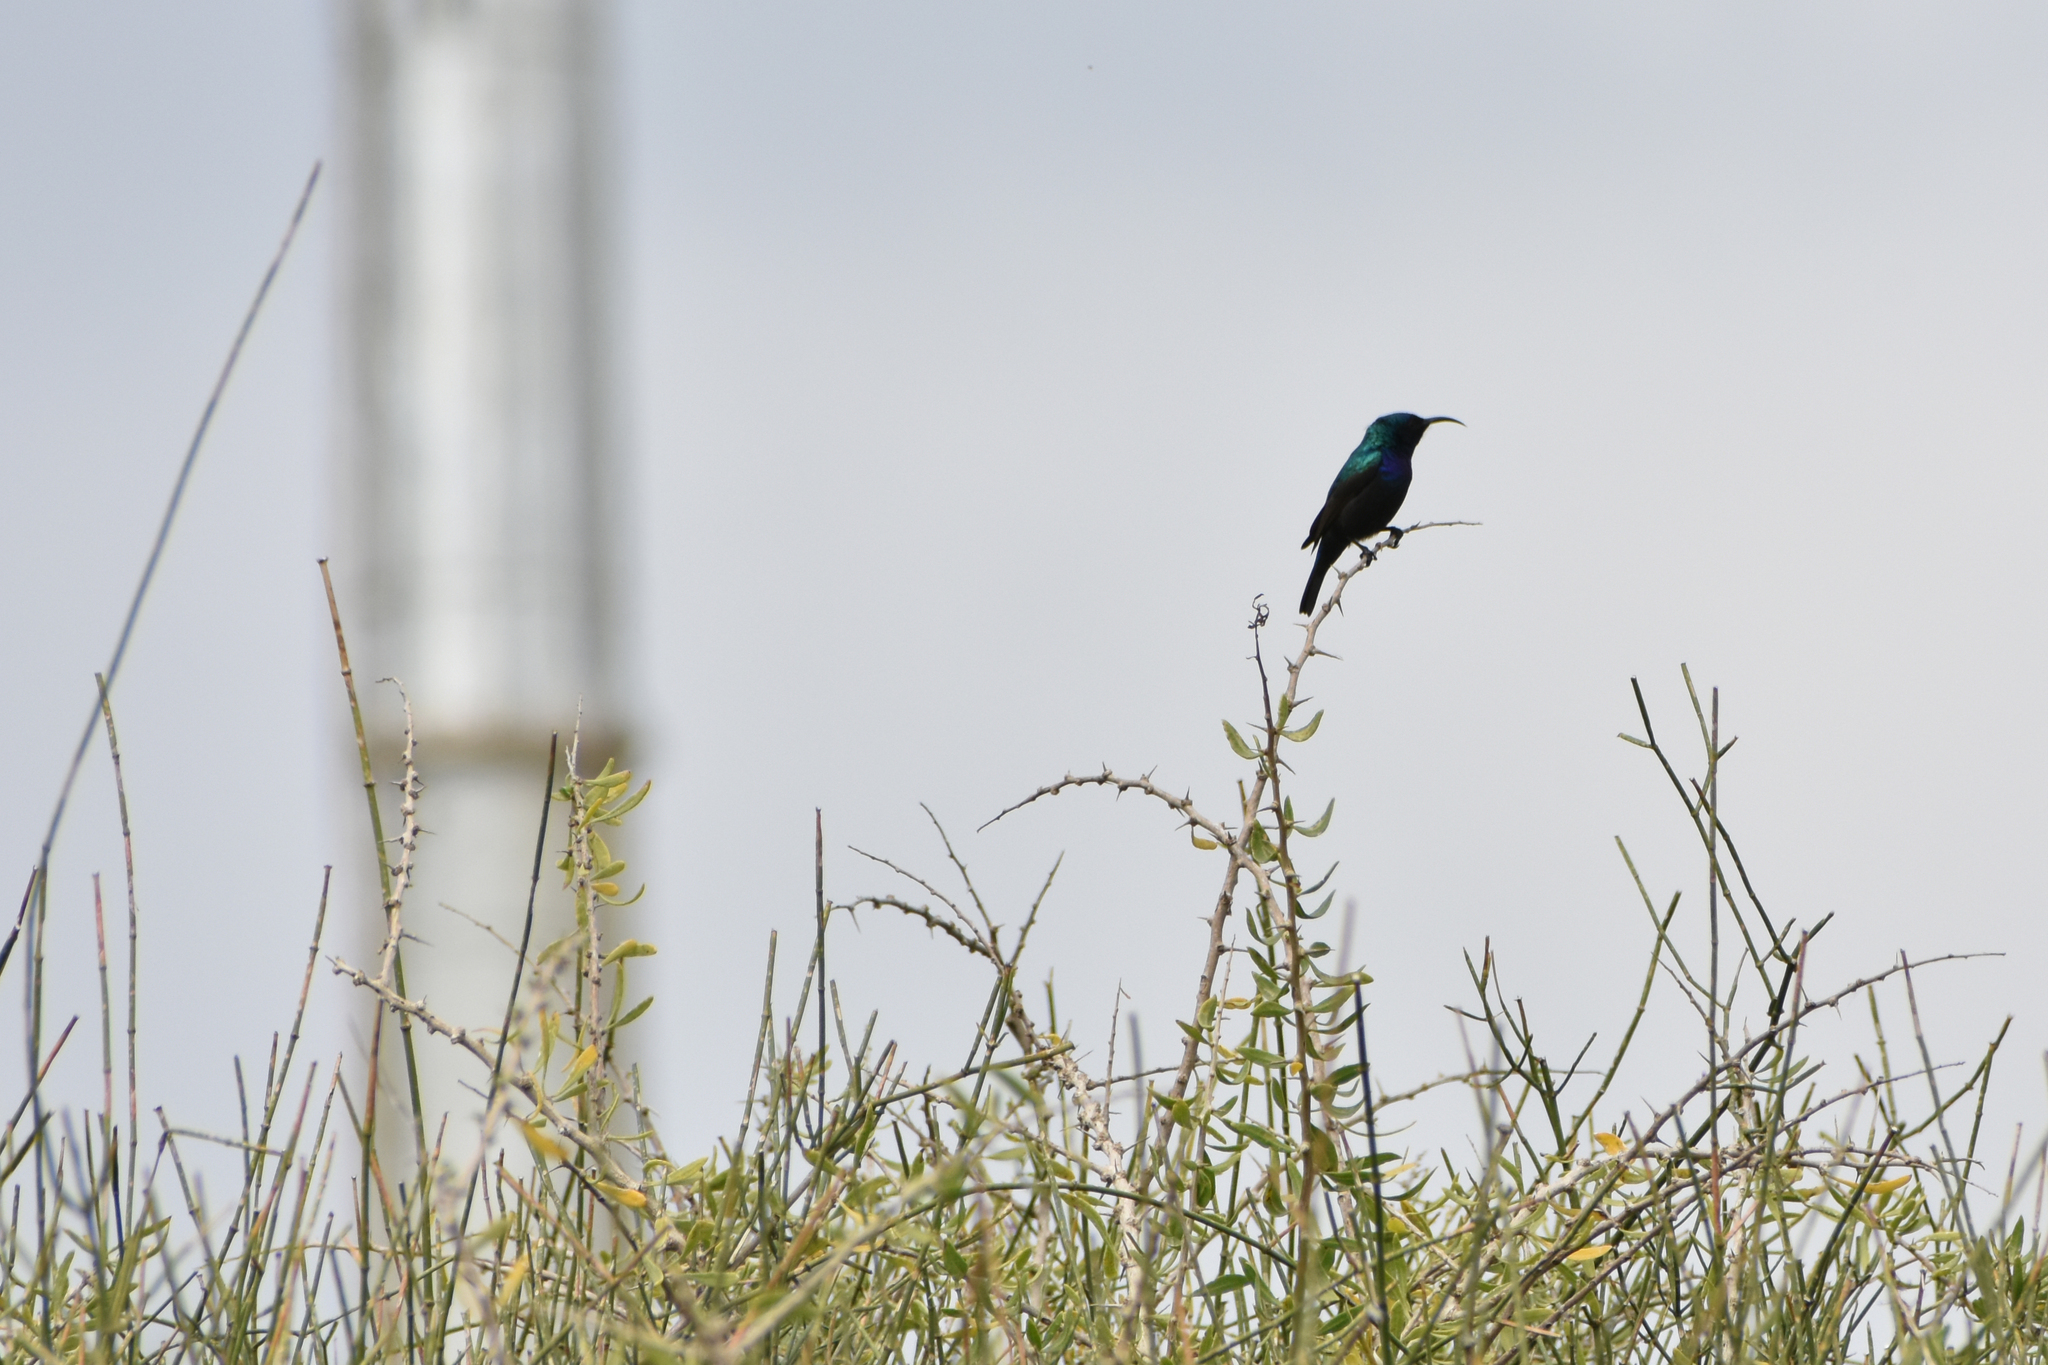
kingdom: Animalia
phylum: Chordata
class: Aves
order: Passeriformes
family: Nectariniidae
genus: Cinnyris
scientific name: Cinnyris osea
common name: Palestine sunbird
